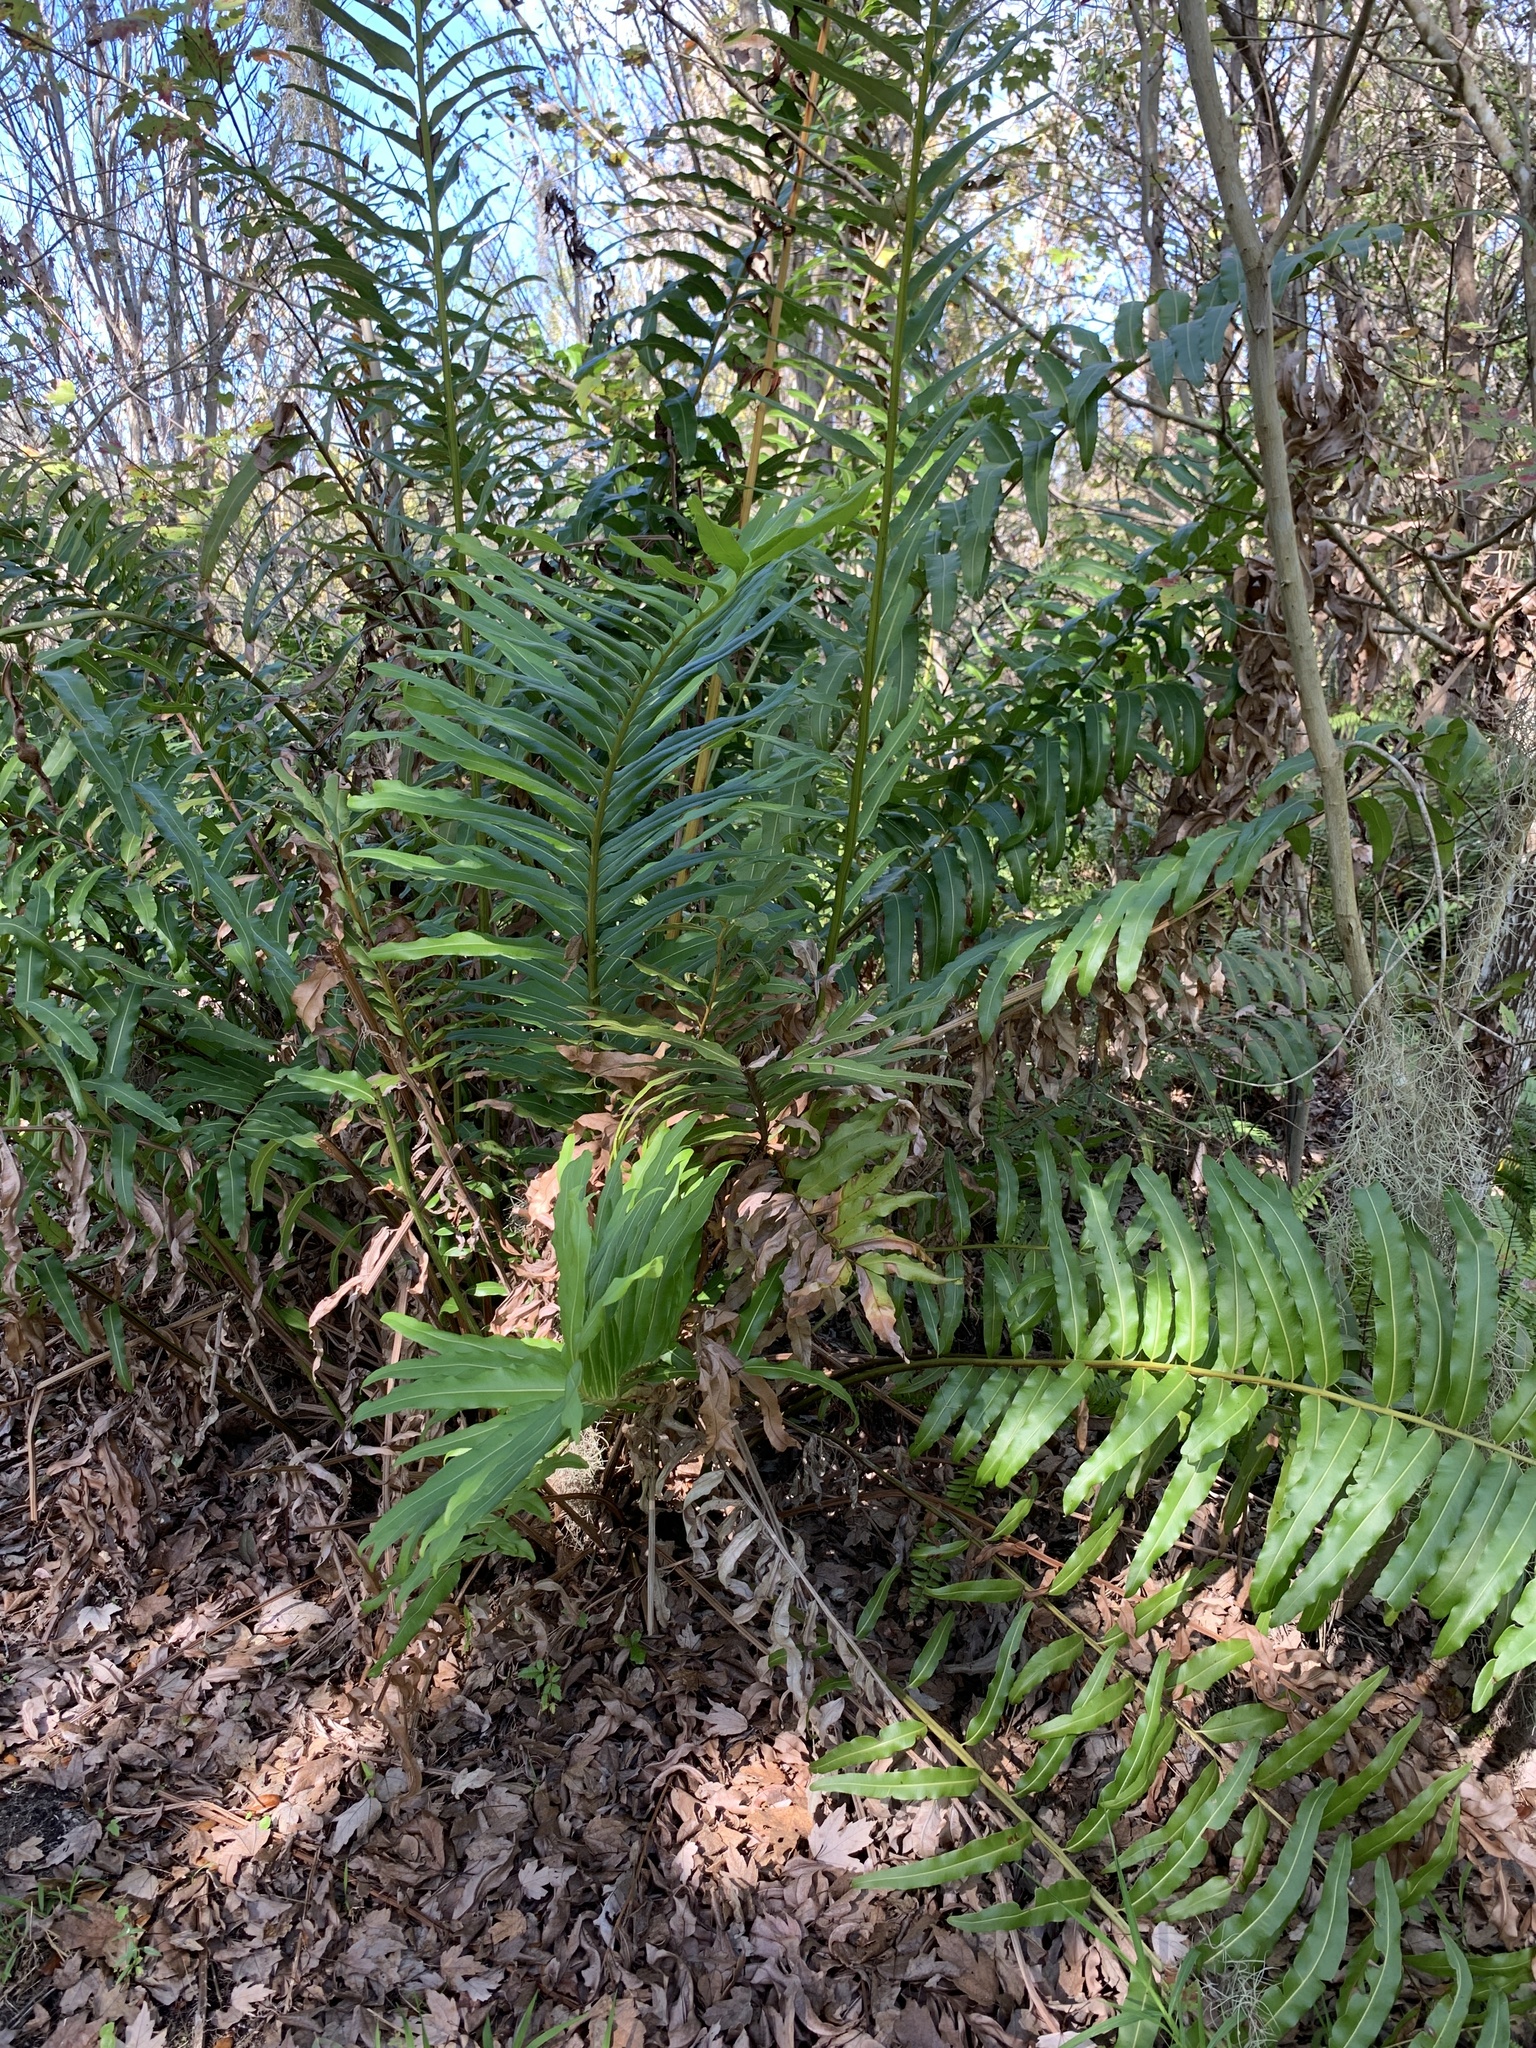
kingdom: Plantae
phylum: Tracheophyta
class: Polypodiopsida
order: Polypodiales
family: Pteridaceae
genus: Acrostichum
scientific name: Acrostichum danaeifolium
